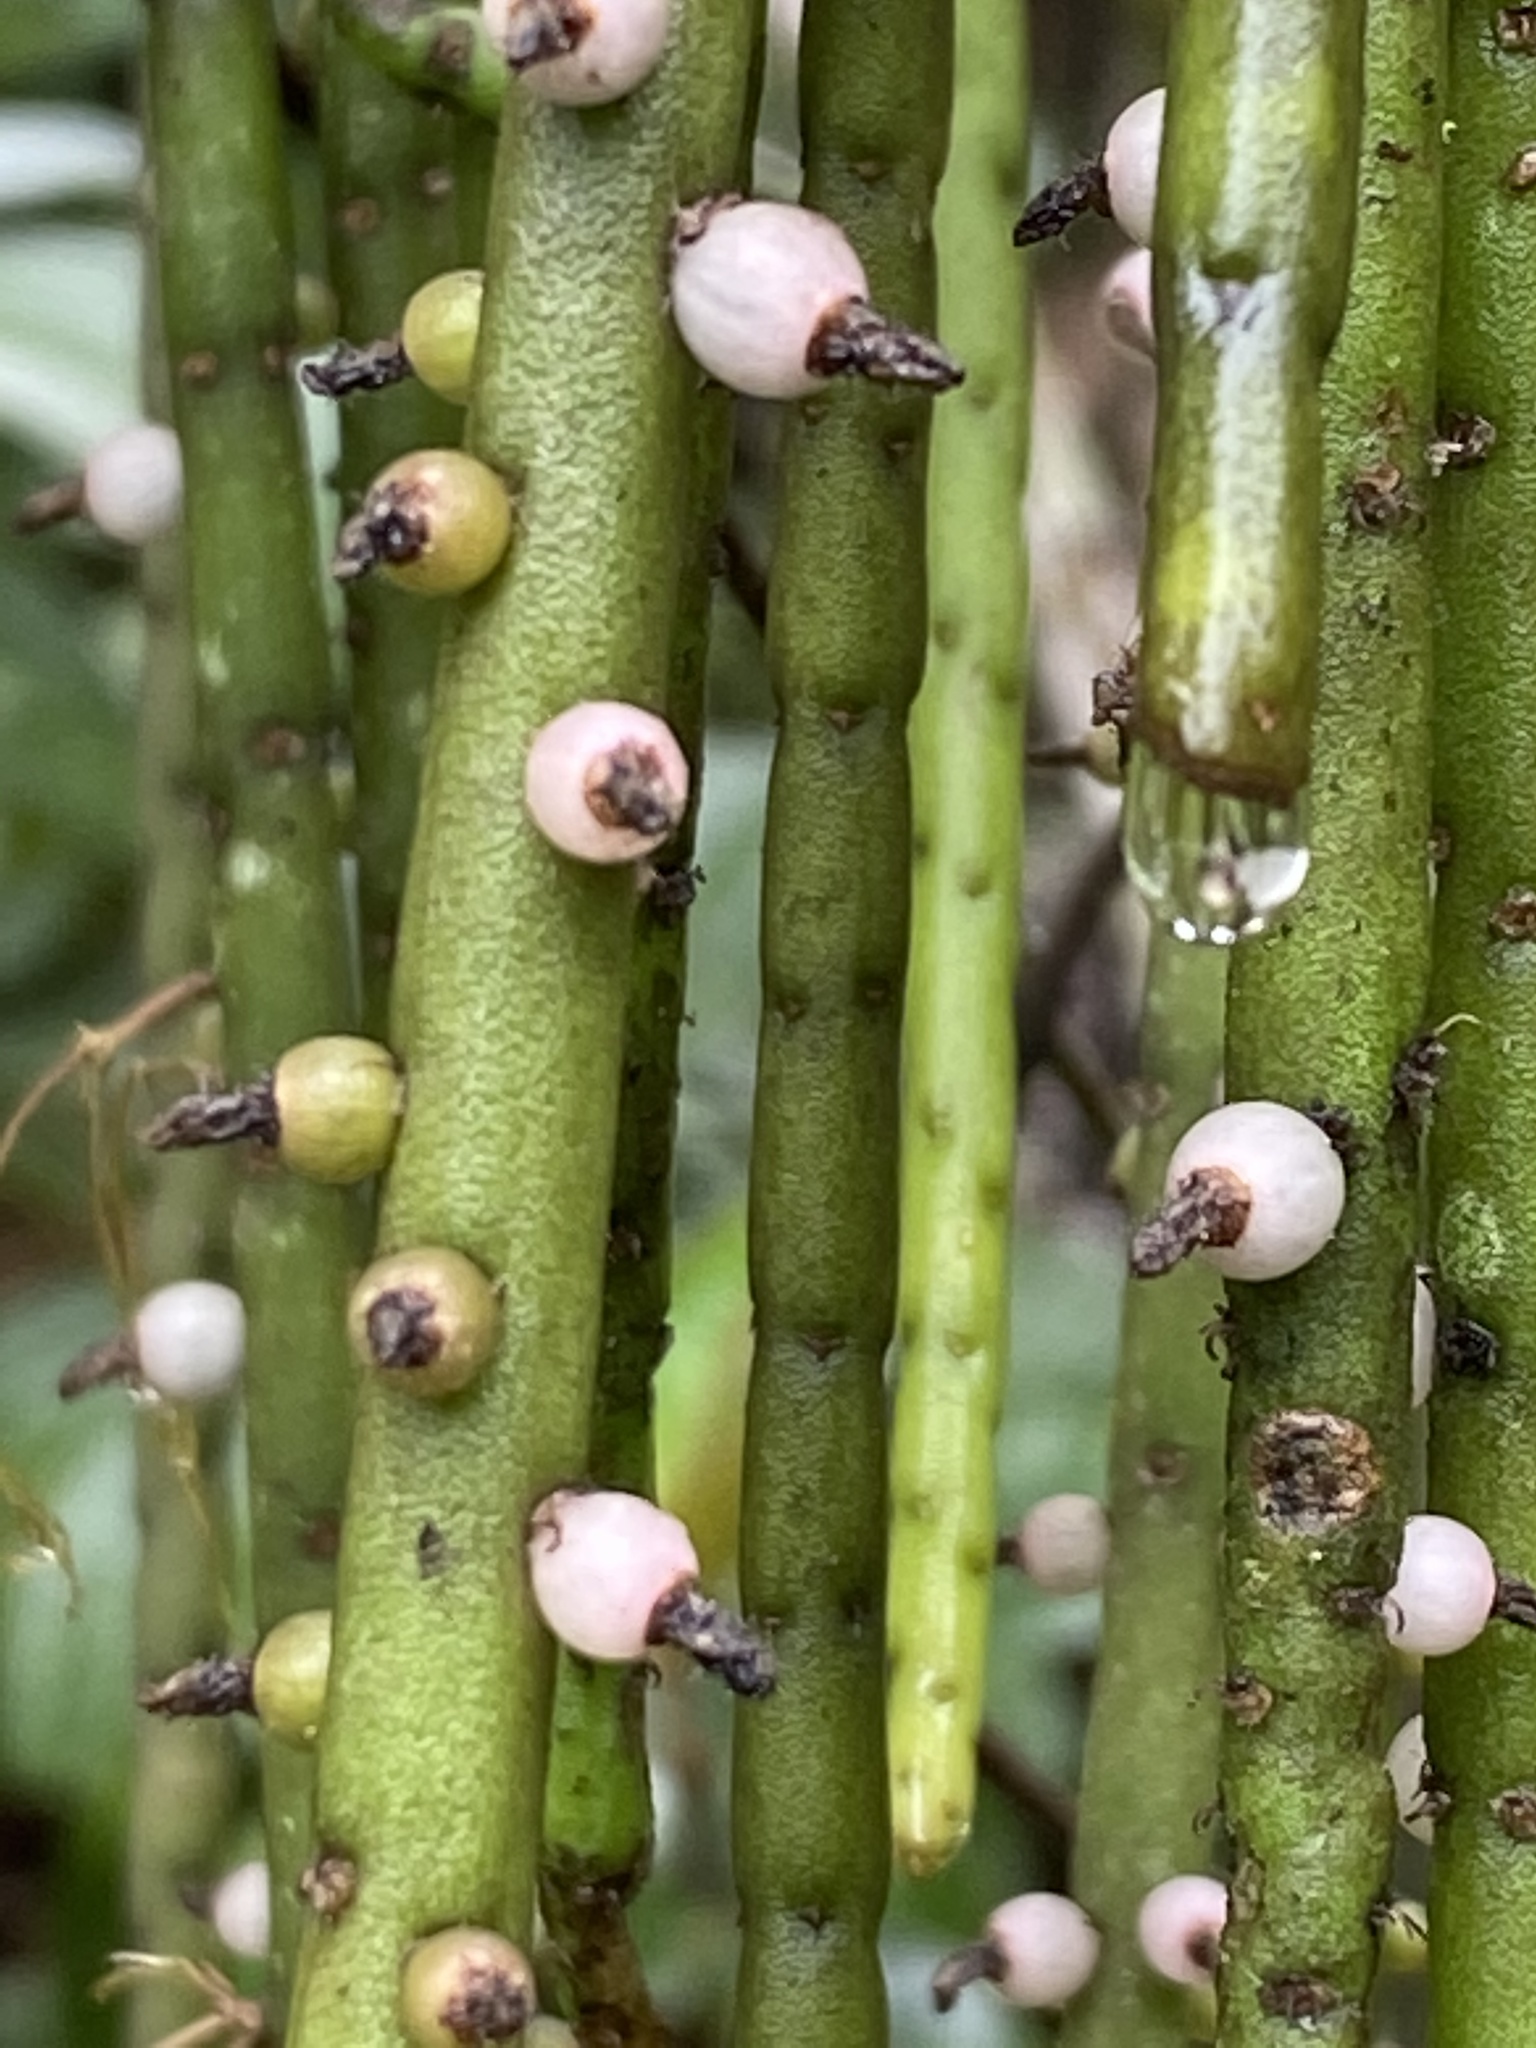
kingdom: Plantae
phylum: Tracheophyta
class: Magnoliopsida
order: Caryophyllales
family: Cactaceae
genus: Rhipsalis
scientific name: Rhipsalis lindbergiana
